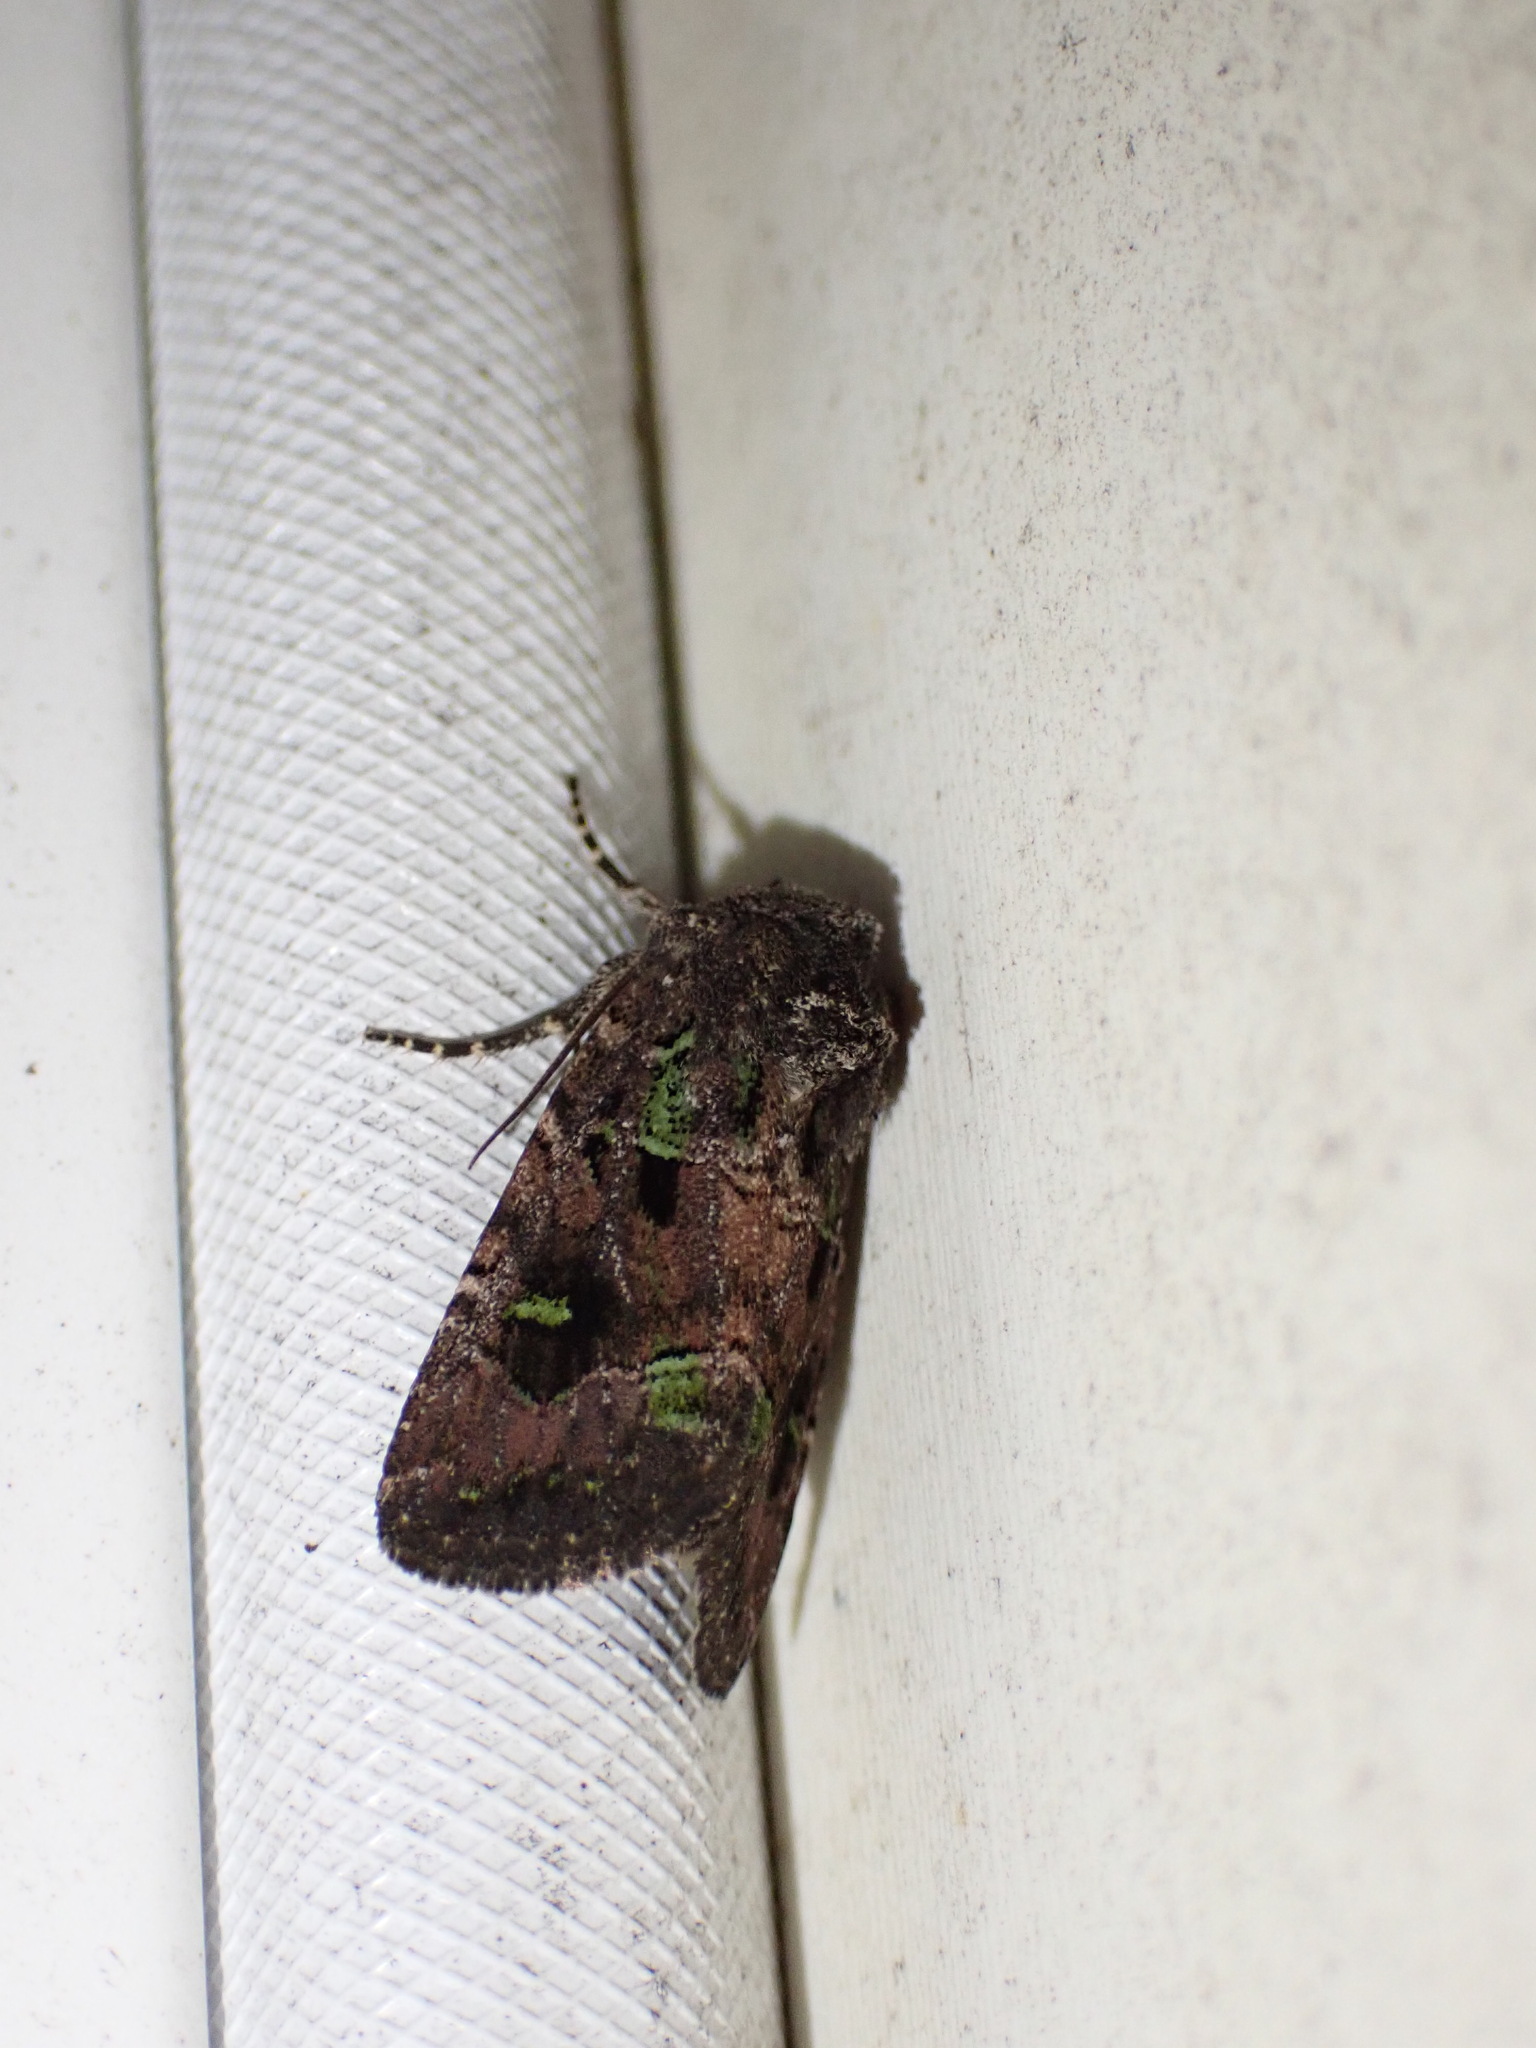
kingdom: Animalia
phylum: Arthropoda
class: Insecta
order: Lepidoptera
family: Noctuidae
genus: Lacinipolia
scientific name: Lacinipolia renigera
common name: Kidney-spotted minor
